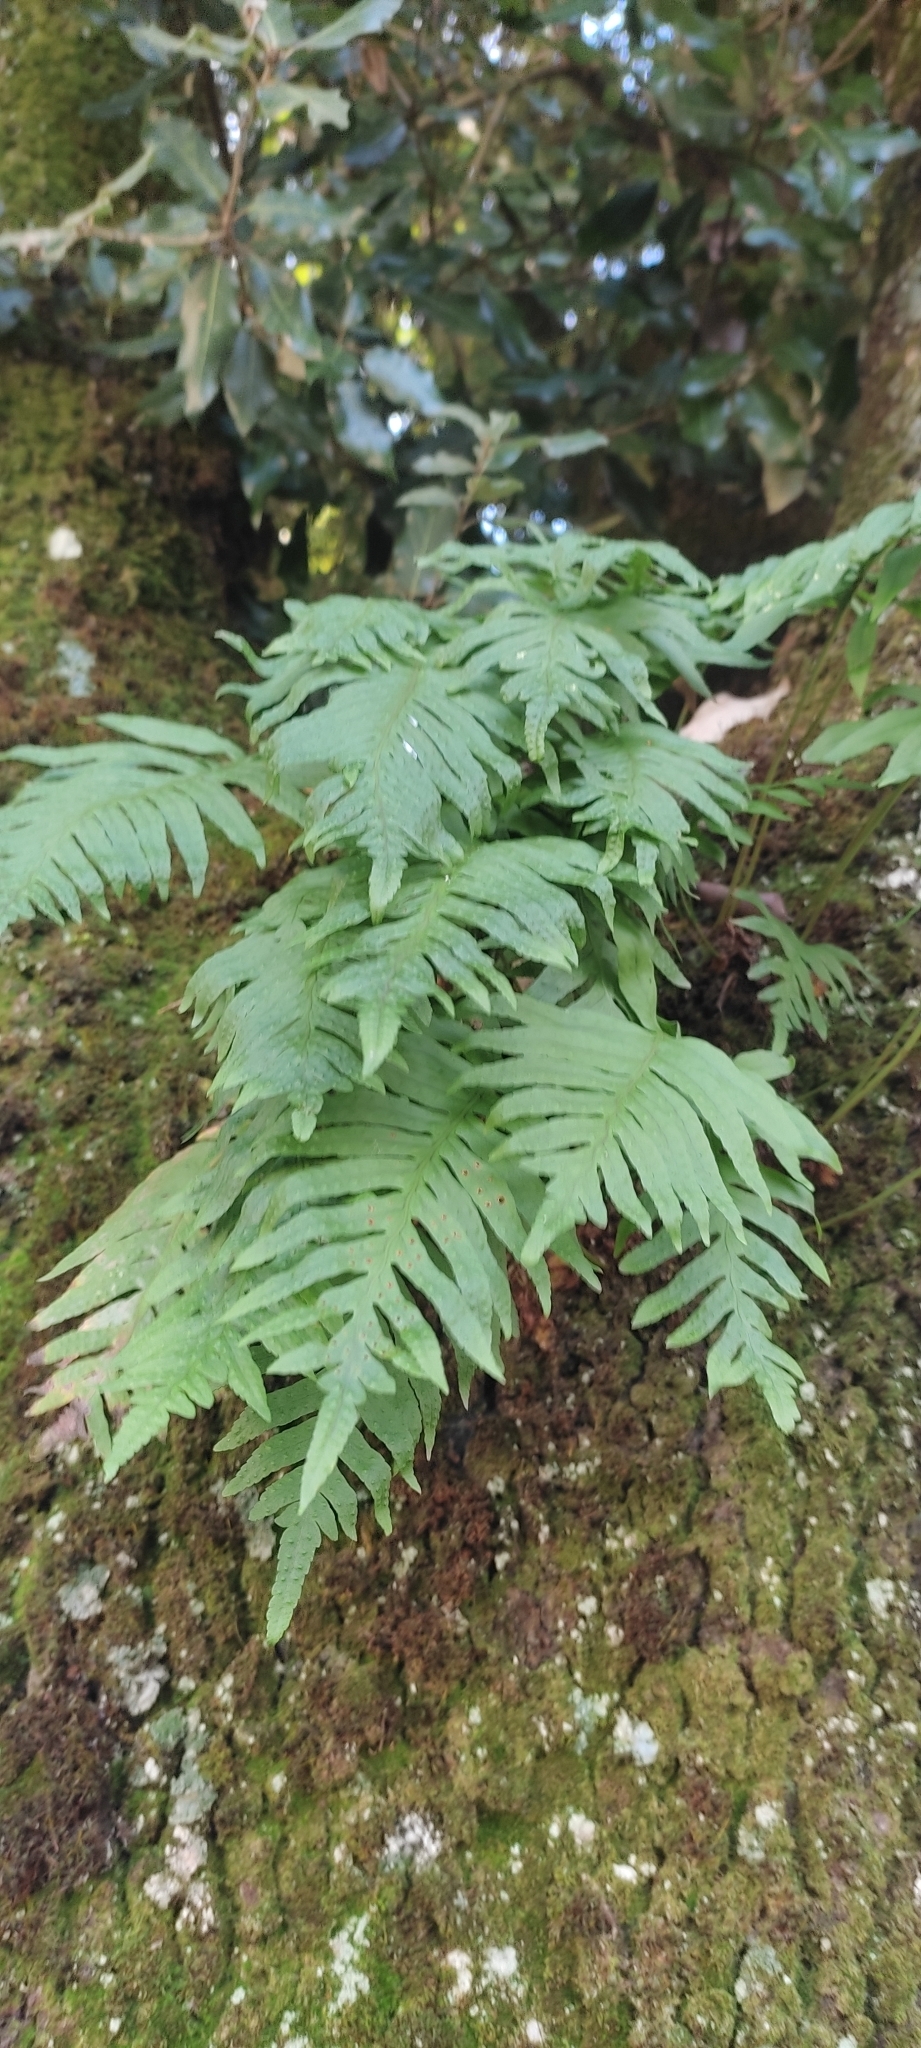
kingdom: Plantae
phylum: Tracheophyta
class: Polypodiopsida
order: Polypodiales
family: Polypodiaceae
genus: Polypodium
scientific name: Polypodium cambricum
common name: Southern polypody
